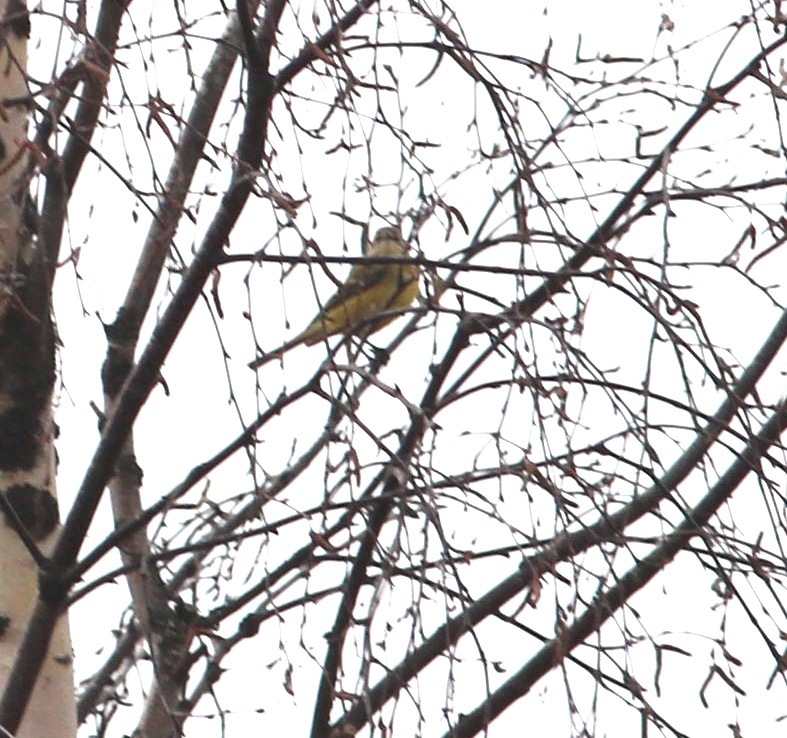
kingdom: Animalia
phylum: Chordata
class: Aves
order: Passeriformes
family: Motacillidae
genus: Motacilla
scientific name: Motacilla flava
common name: Western yellow wagtail
